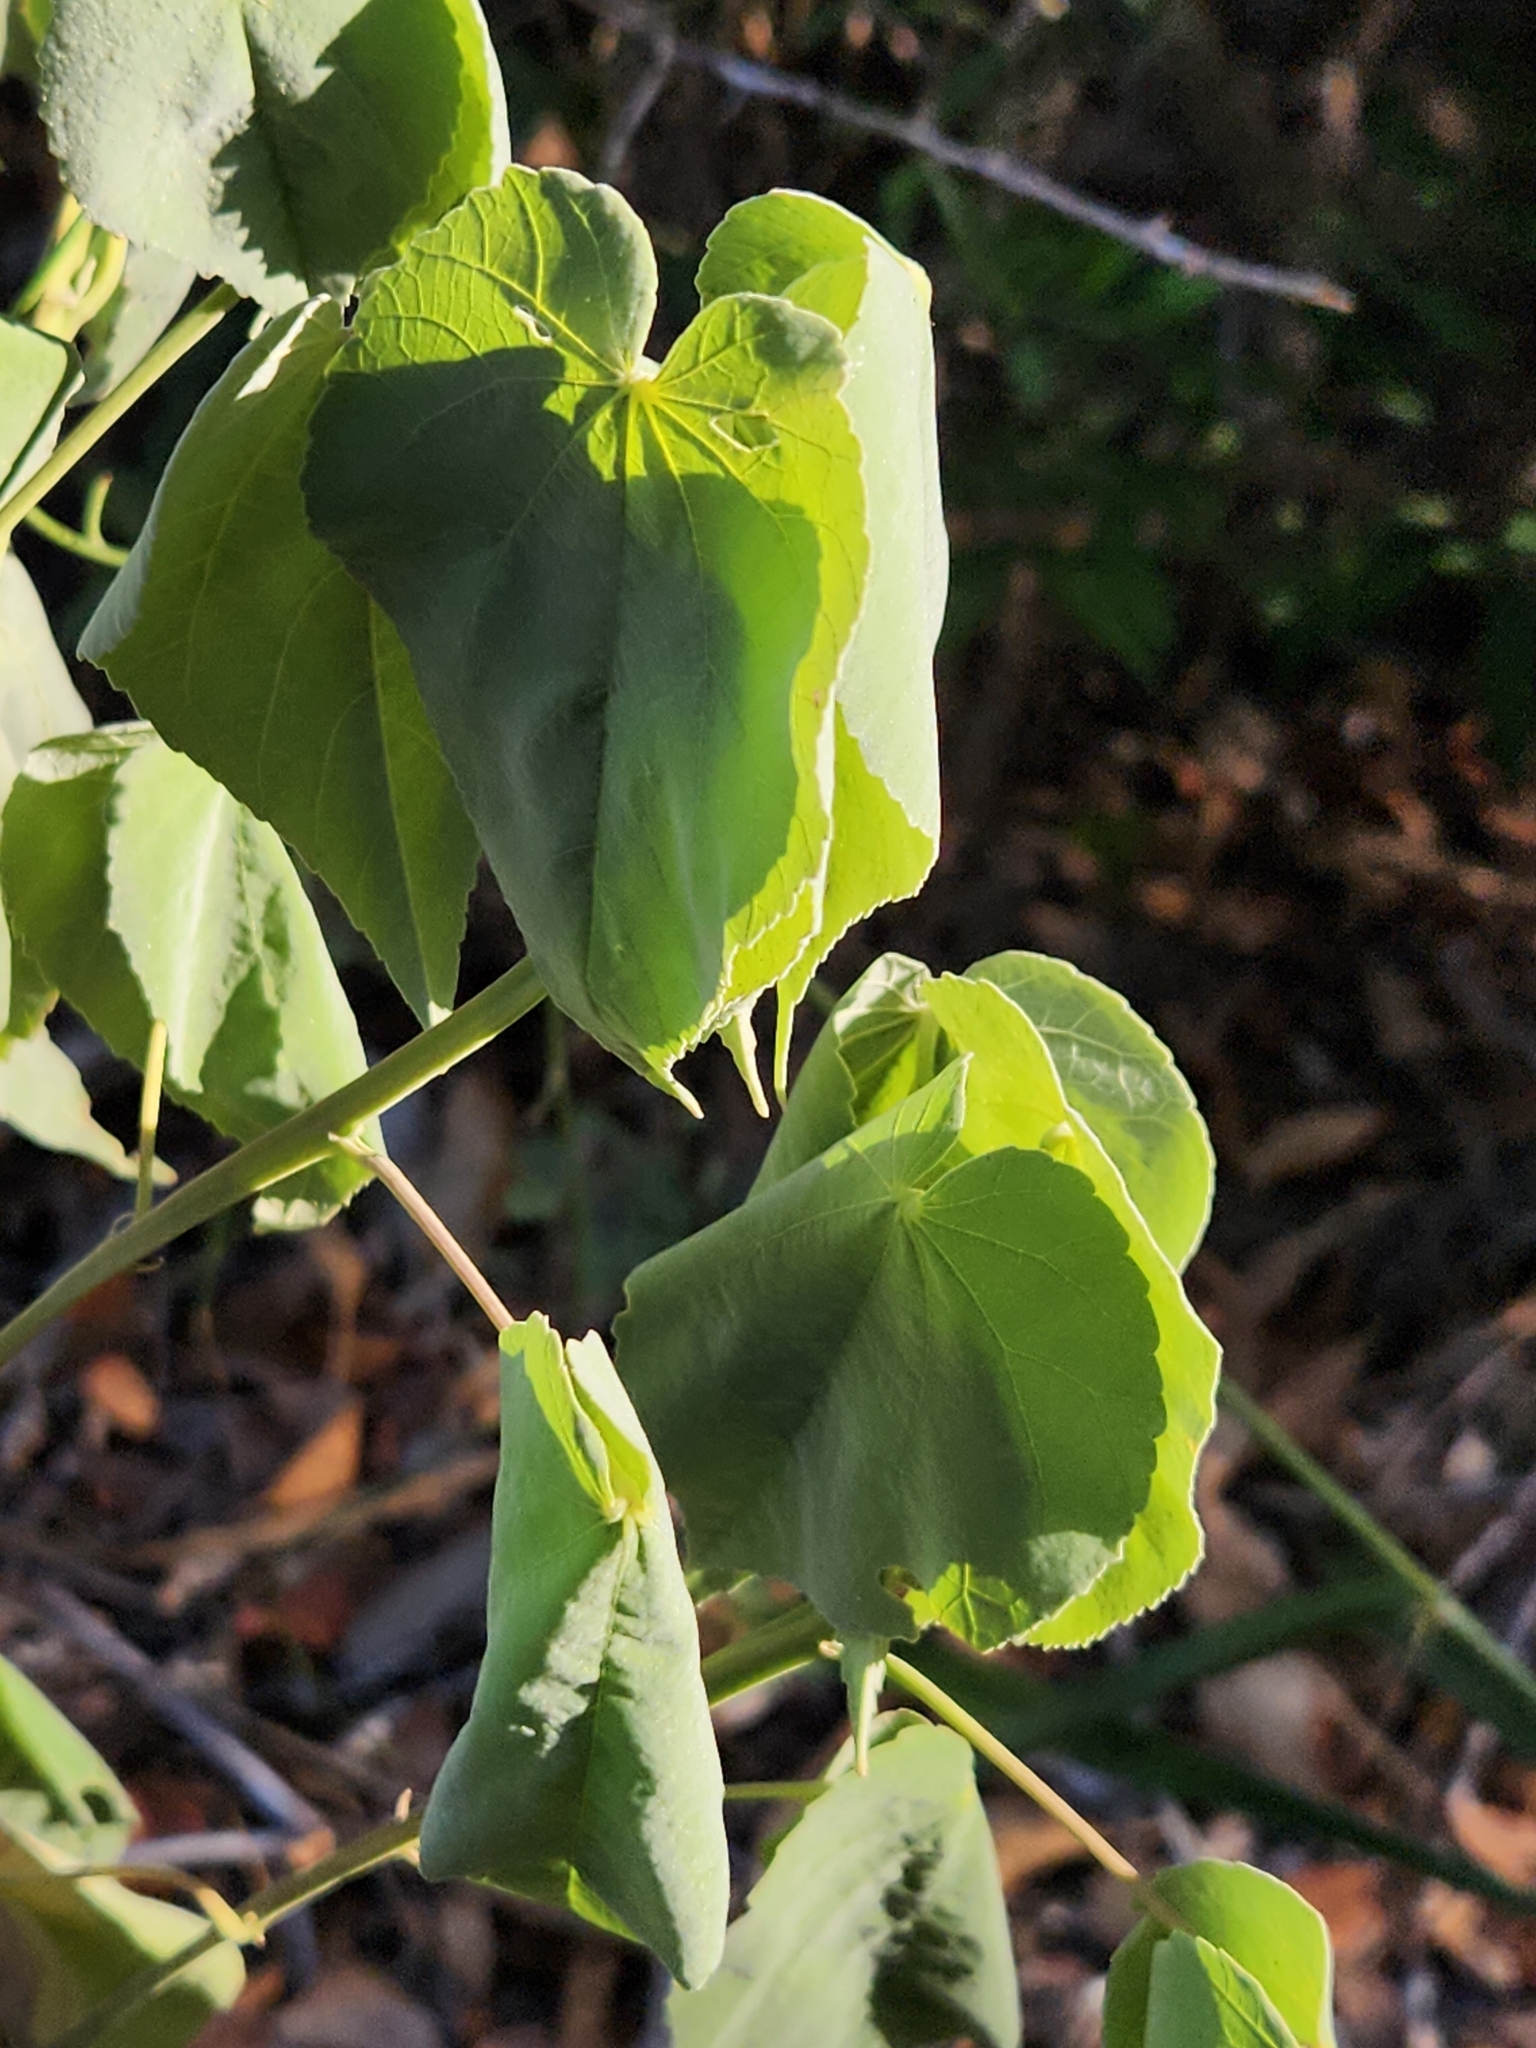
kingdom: Plantae
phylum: Tracheophyta
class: Magnoliopsida
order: Malvales
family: Malvaceae
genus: Abutilon
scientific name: Abutilon trisulcatum
